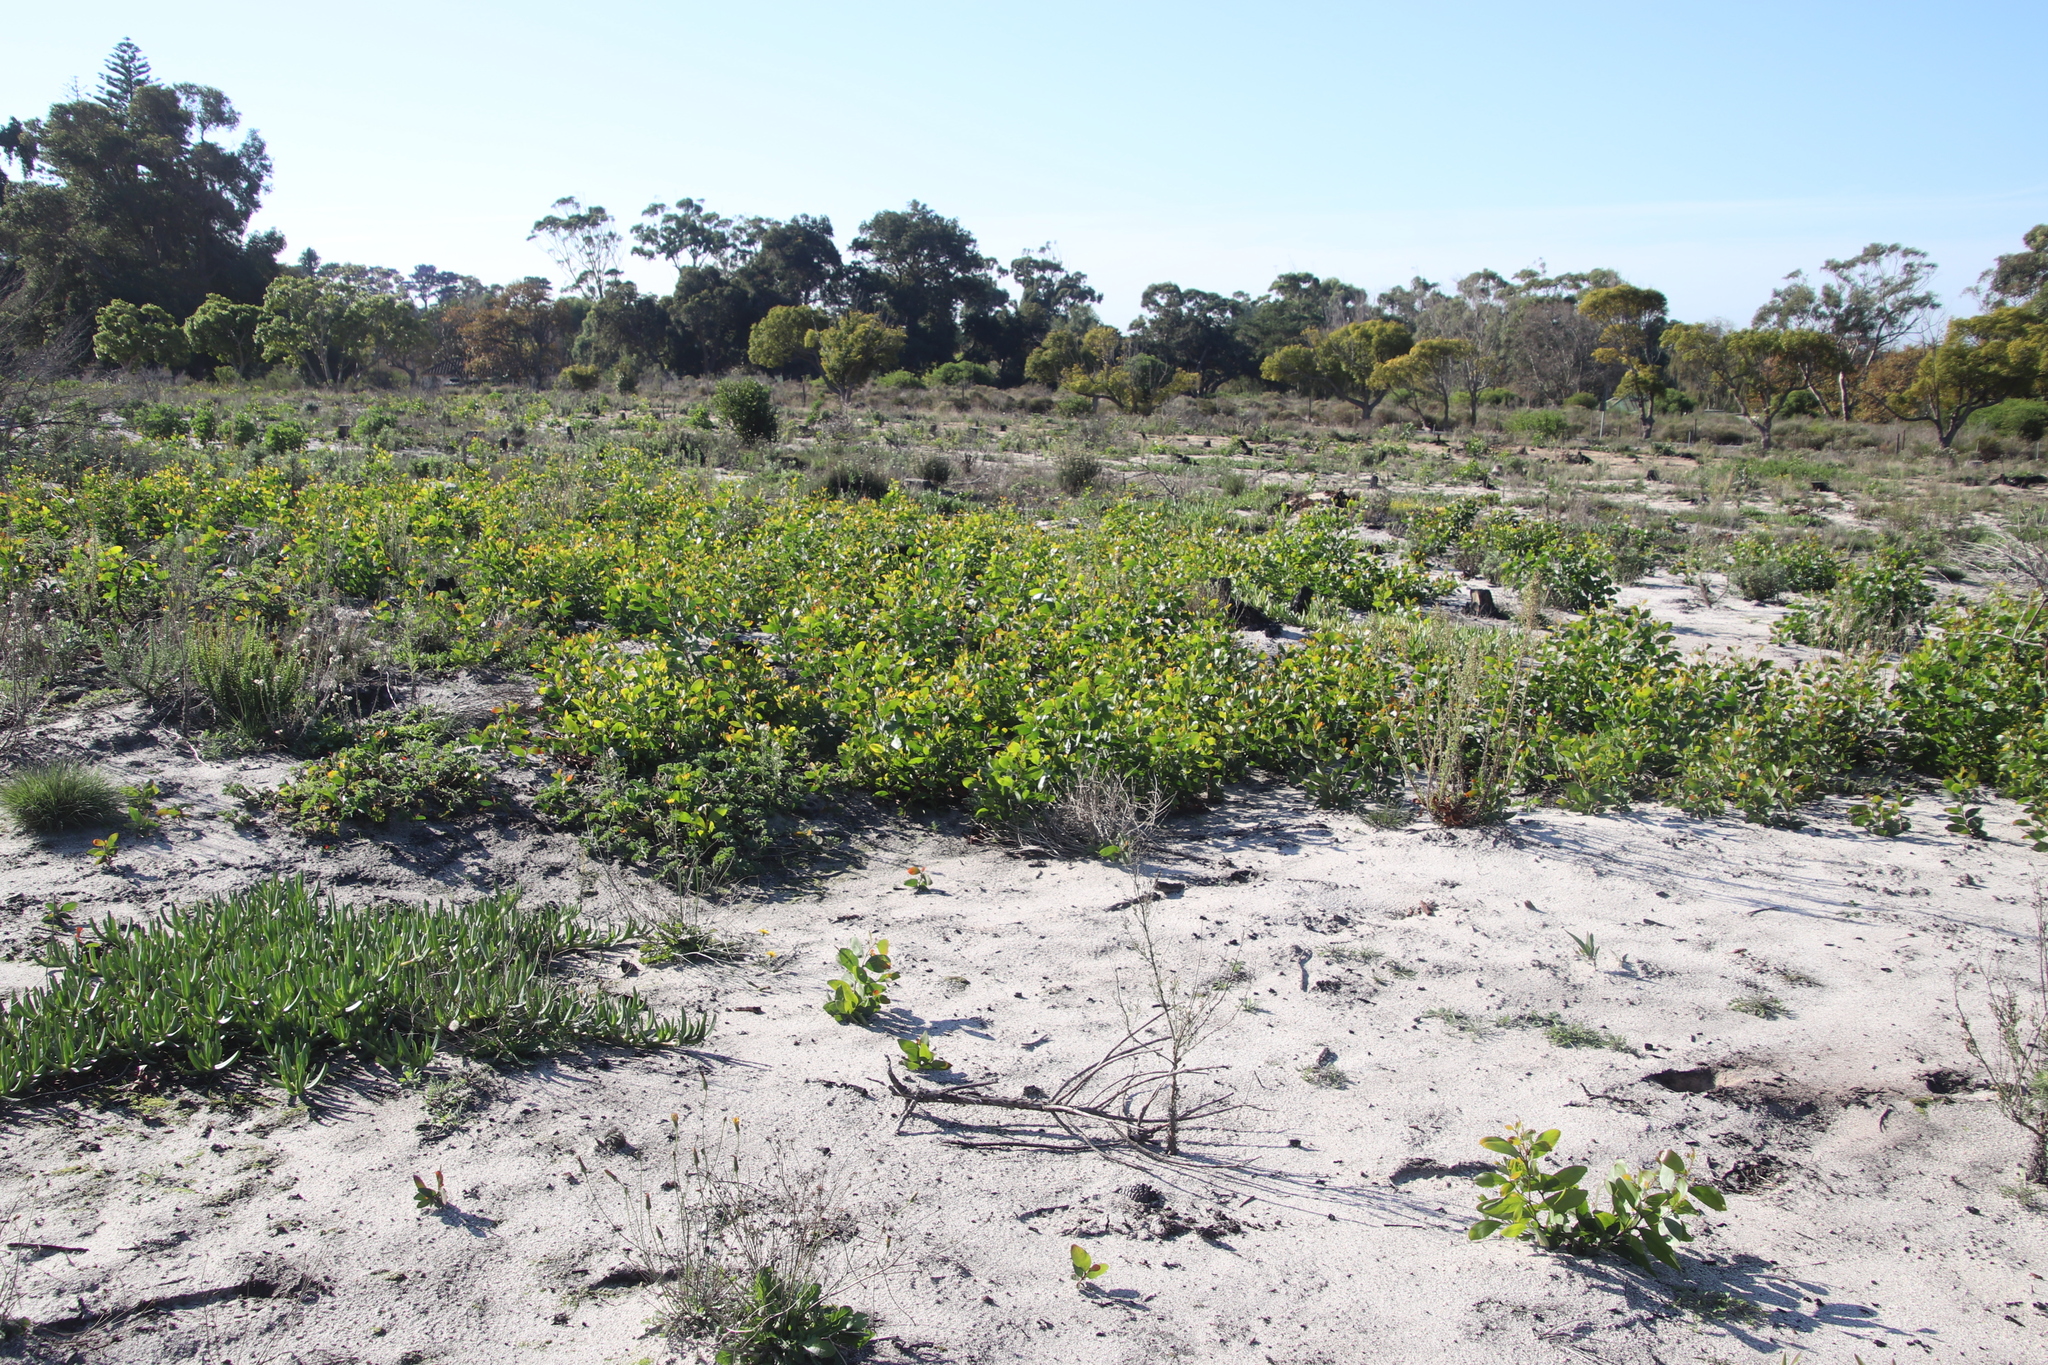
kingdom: Plantae
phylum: Tracheophyta
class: Magnoliopsida
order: Fabales
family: Fabaceae
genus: Acacia
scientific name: Acacia pycnantha
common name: Golden wattle
